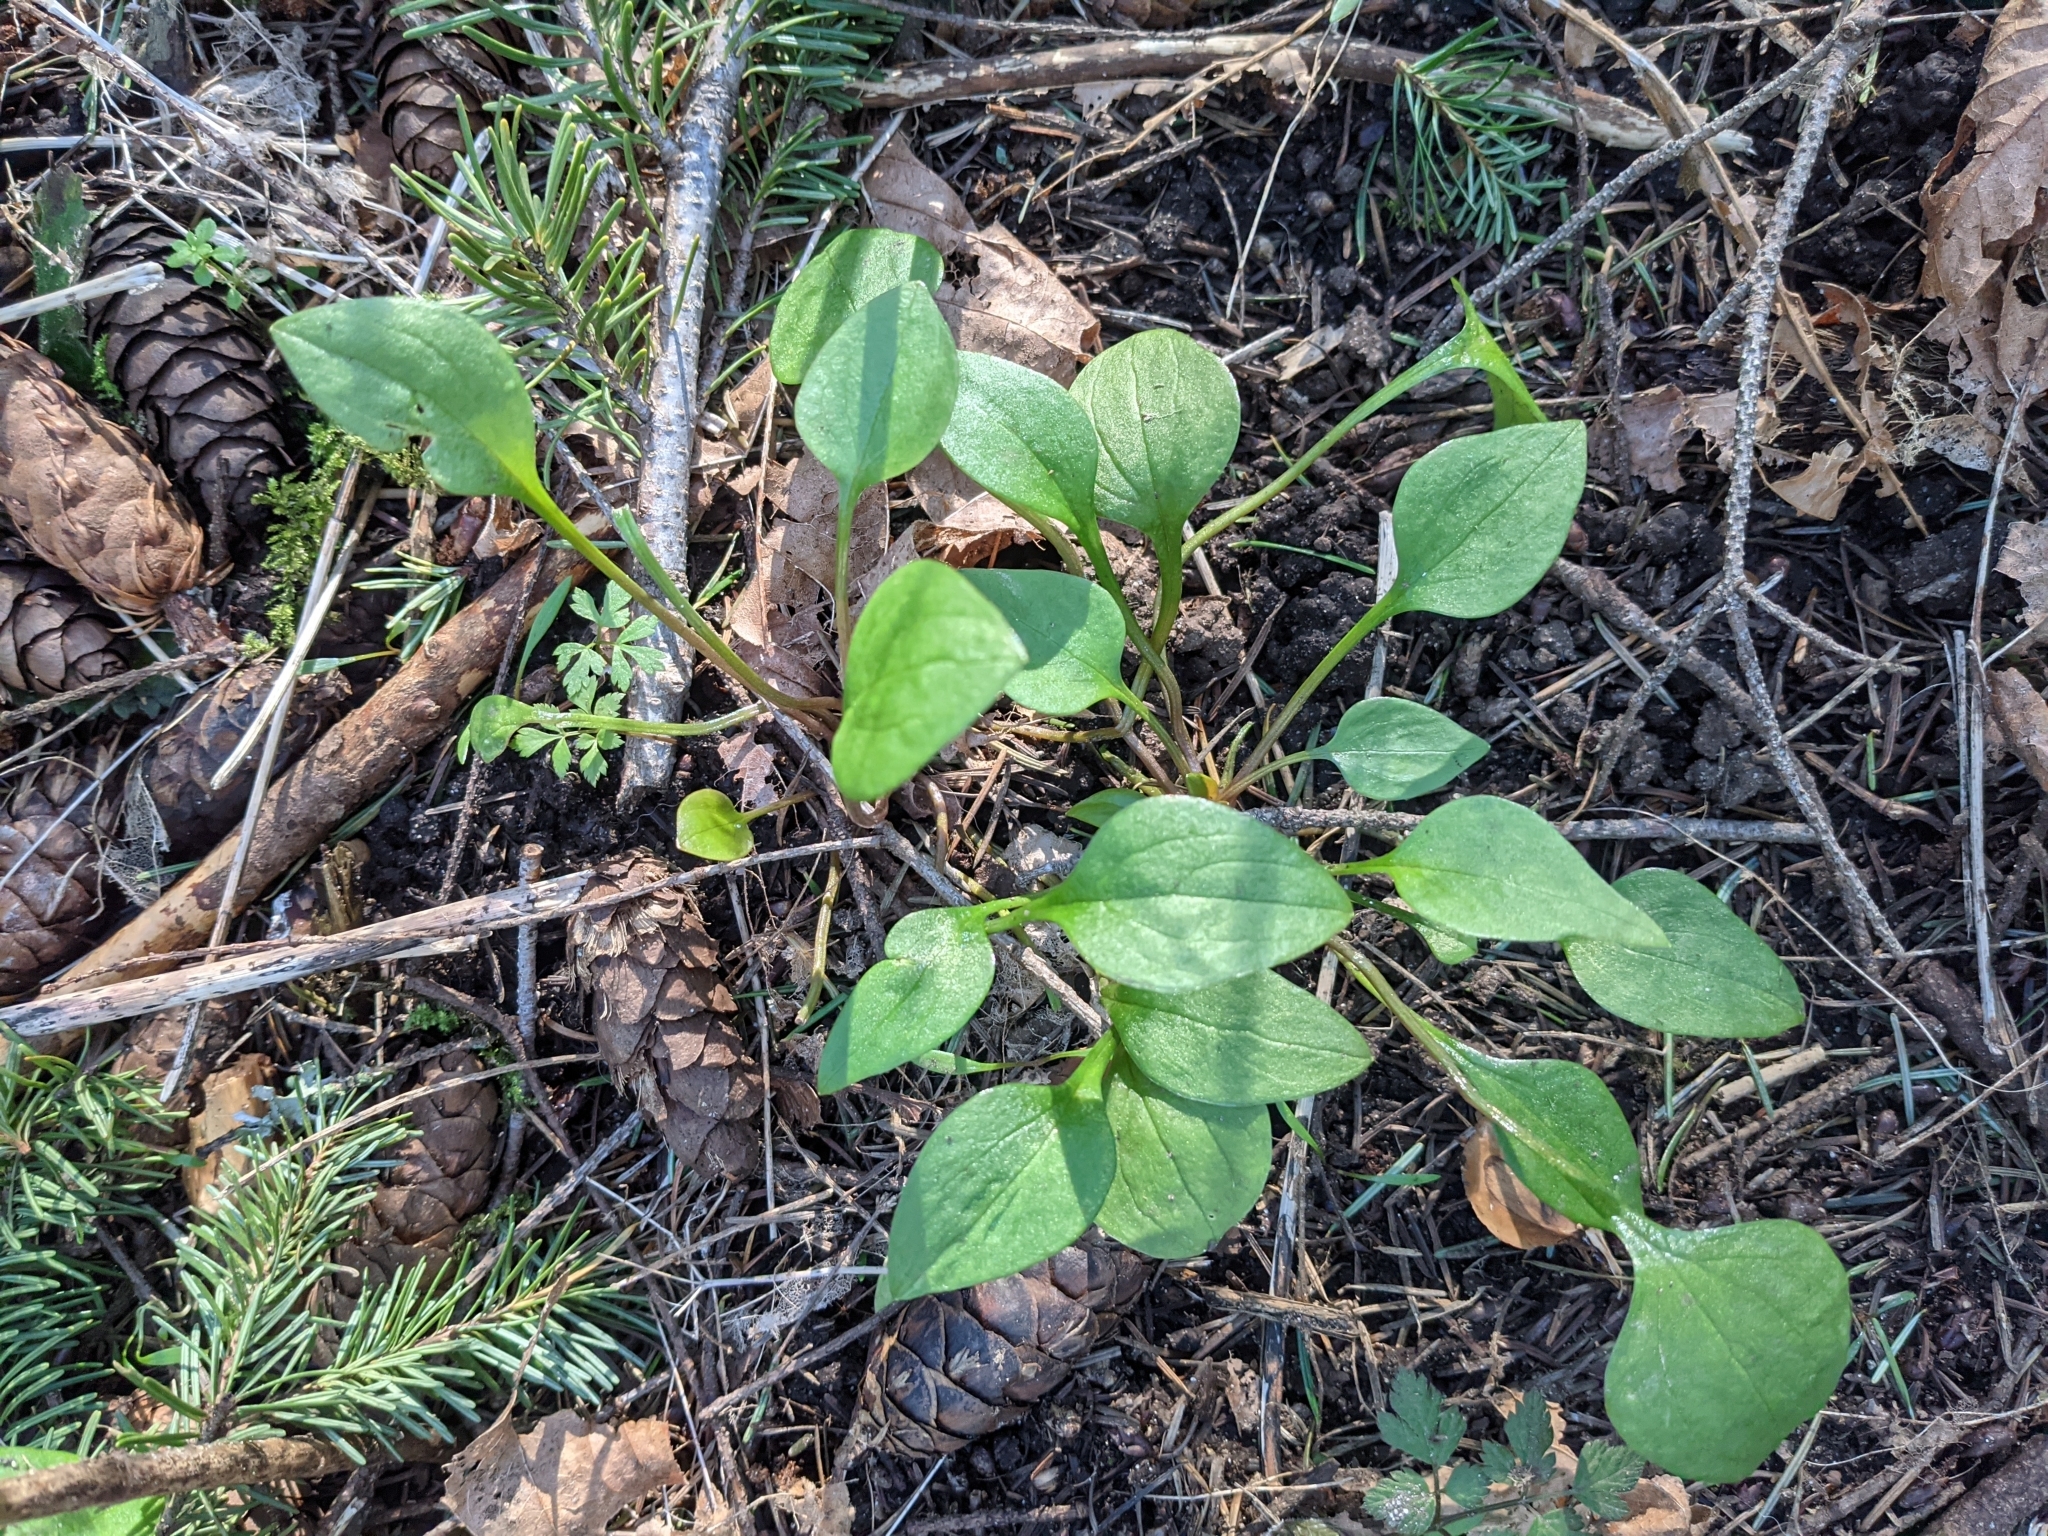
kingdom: Plantae
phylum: Tracheophyta
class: Magnoliopsida
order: Caryophyllales
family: Montiaceae
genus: Claytonia
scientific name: Claytonia perfoliata
